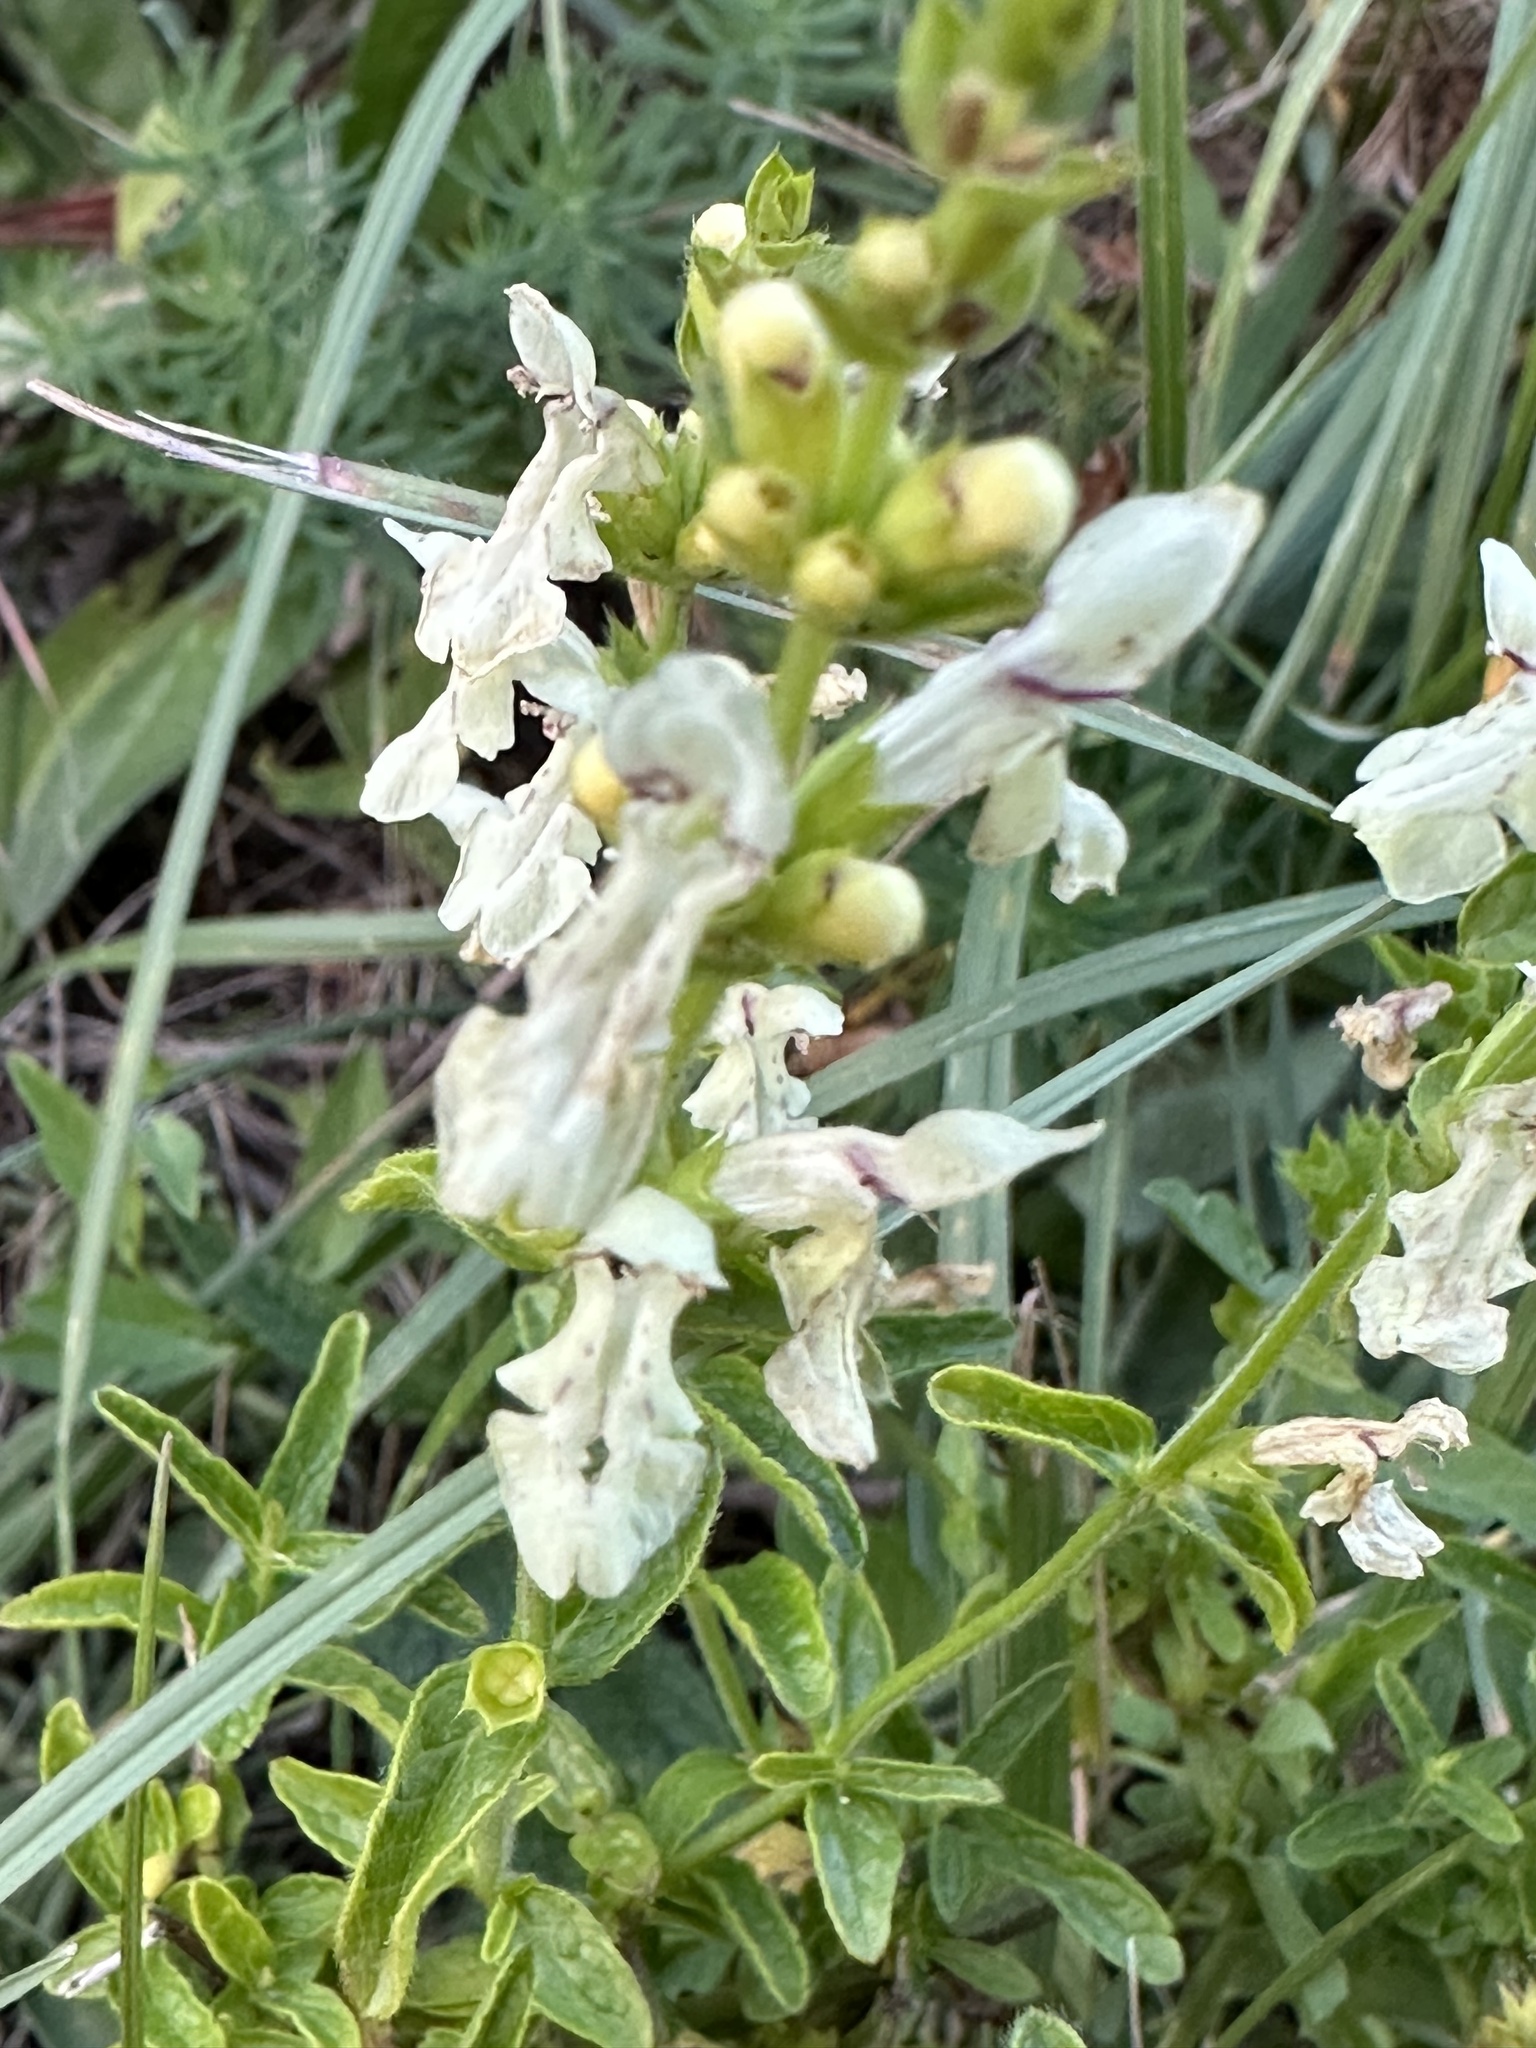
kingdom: Plantae
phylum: Tracheophyta
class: Magnoliopsida
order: Lamiales
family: Lamiaceae
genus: Stachys
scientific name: Stachys recta
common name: Perennial yellow-woundwort
